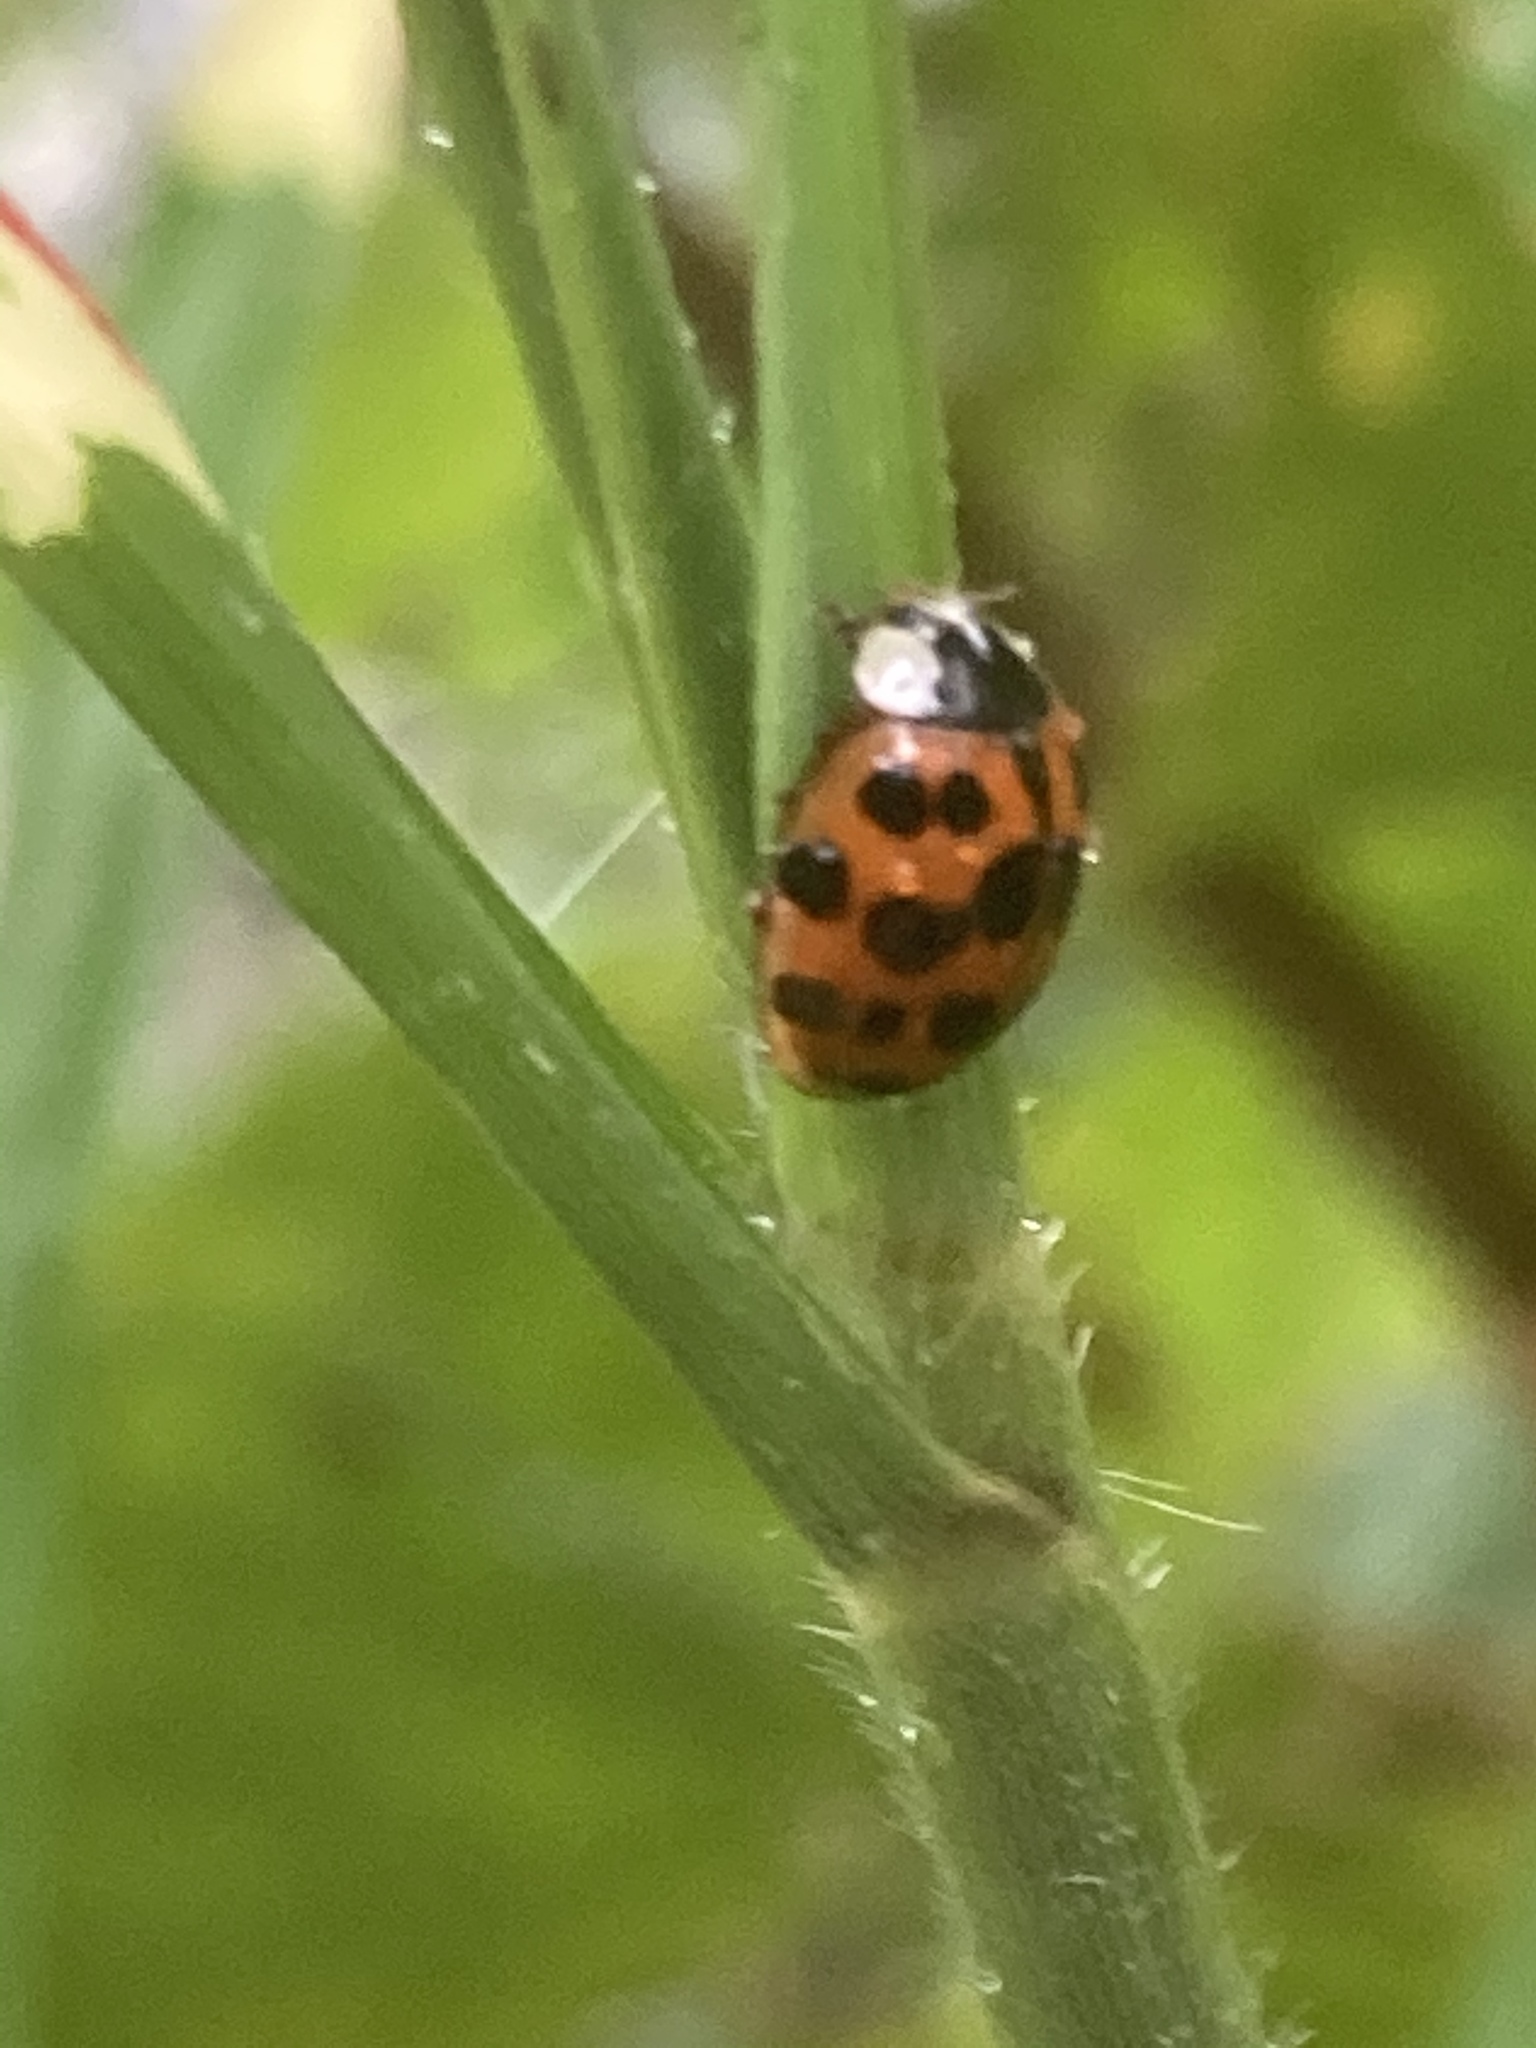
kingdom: Animalia
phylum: Arthropoda
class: Insecta
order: Coleoptera
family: Coccinellidae
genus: Harmonia
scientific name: Harmonia axyridis
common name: Harlequin ladybird
